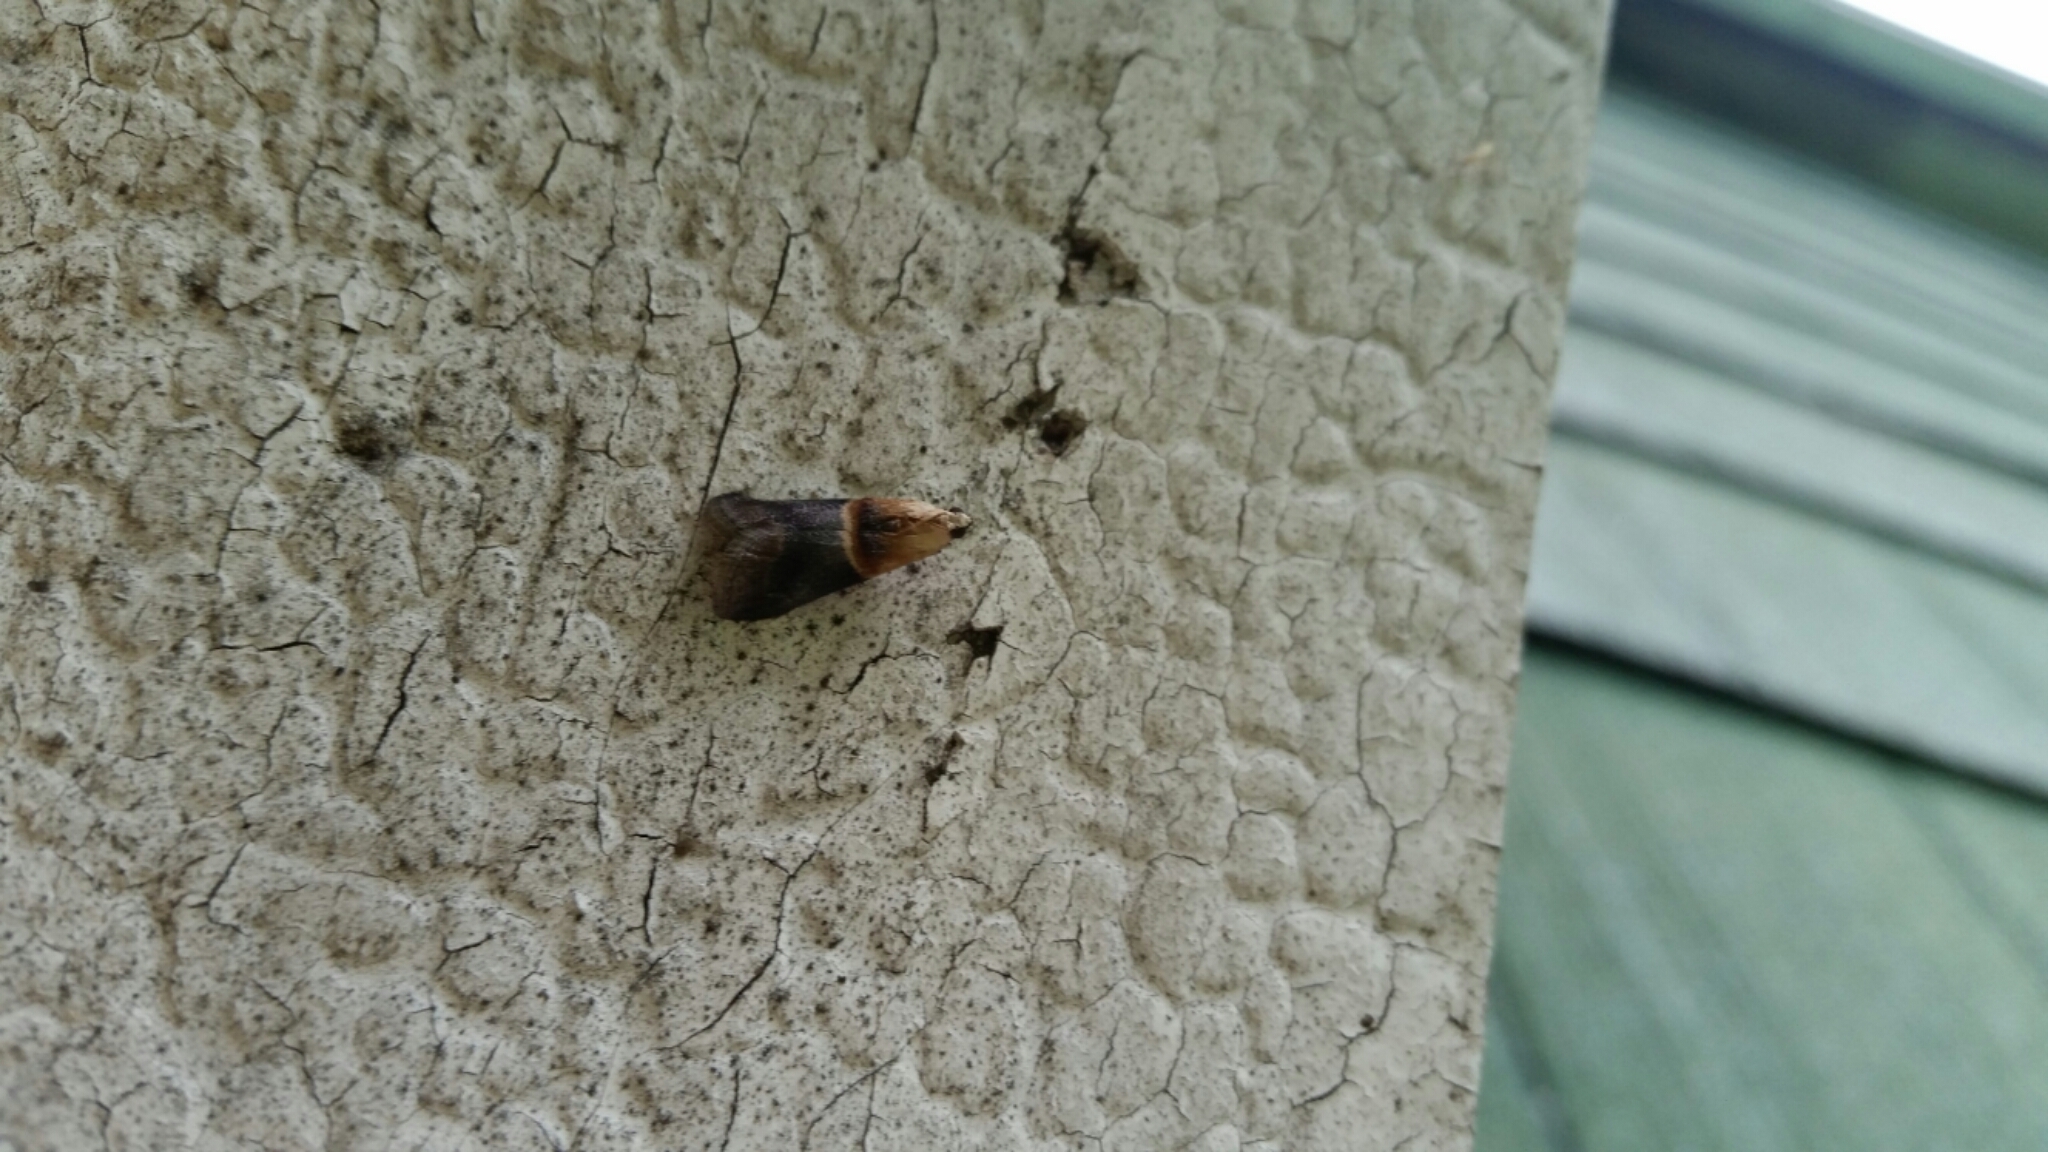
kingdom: Animalia
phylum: Arthropoda
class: Insecta
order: Lepidoptera
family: Pyralidae
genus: Acrobasis
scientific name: Acrobasis demotella
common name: Walnut shoot moth
